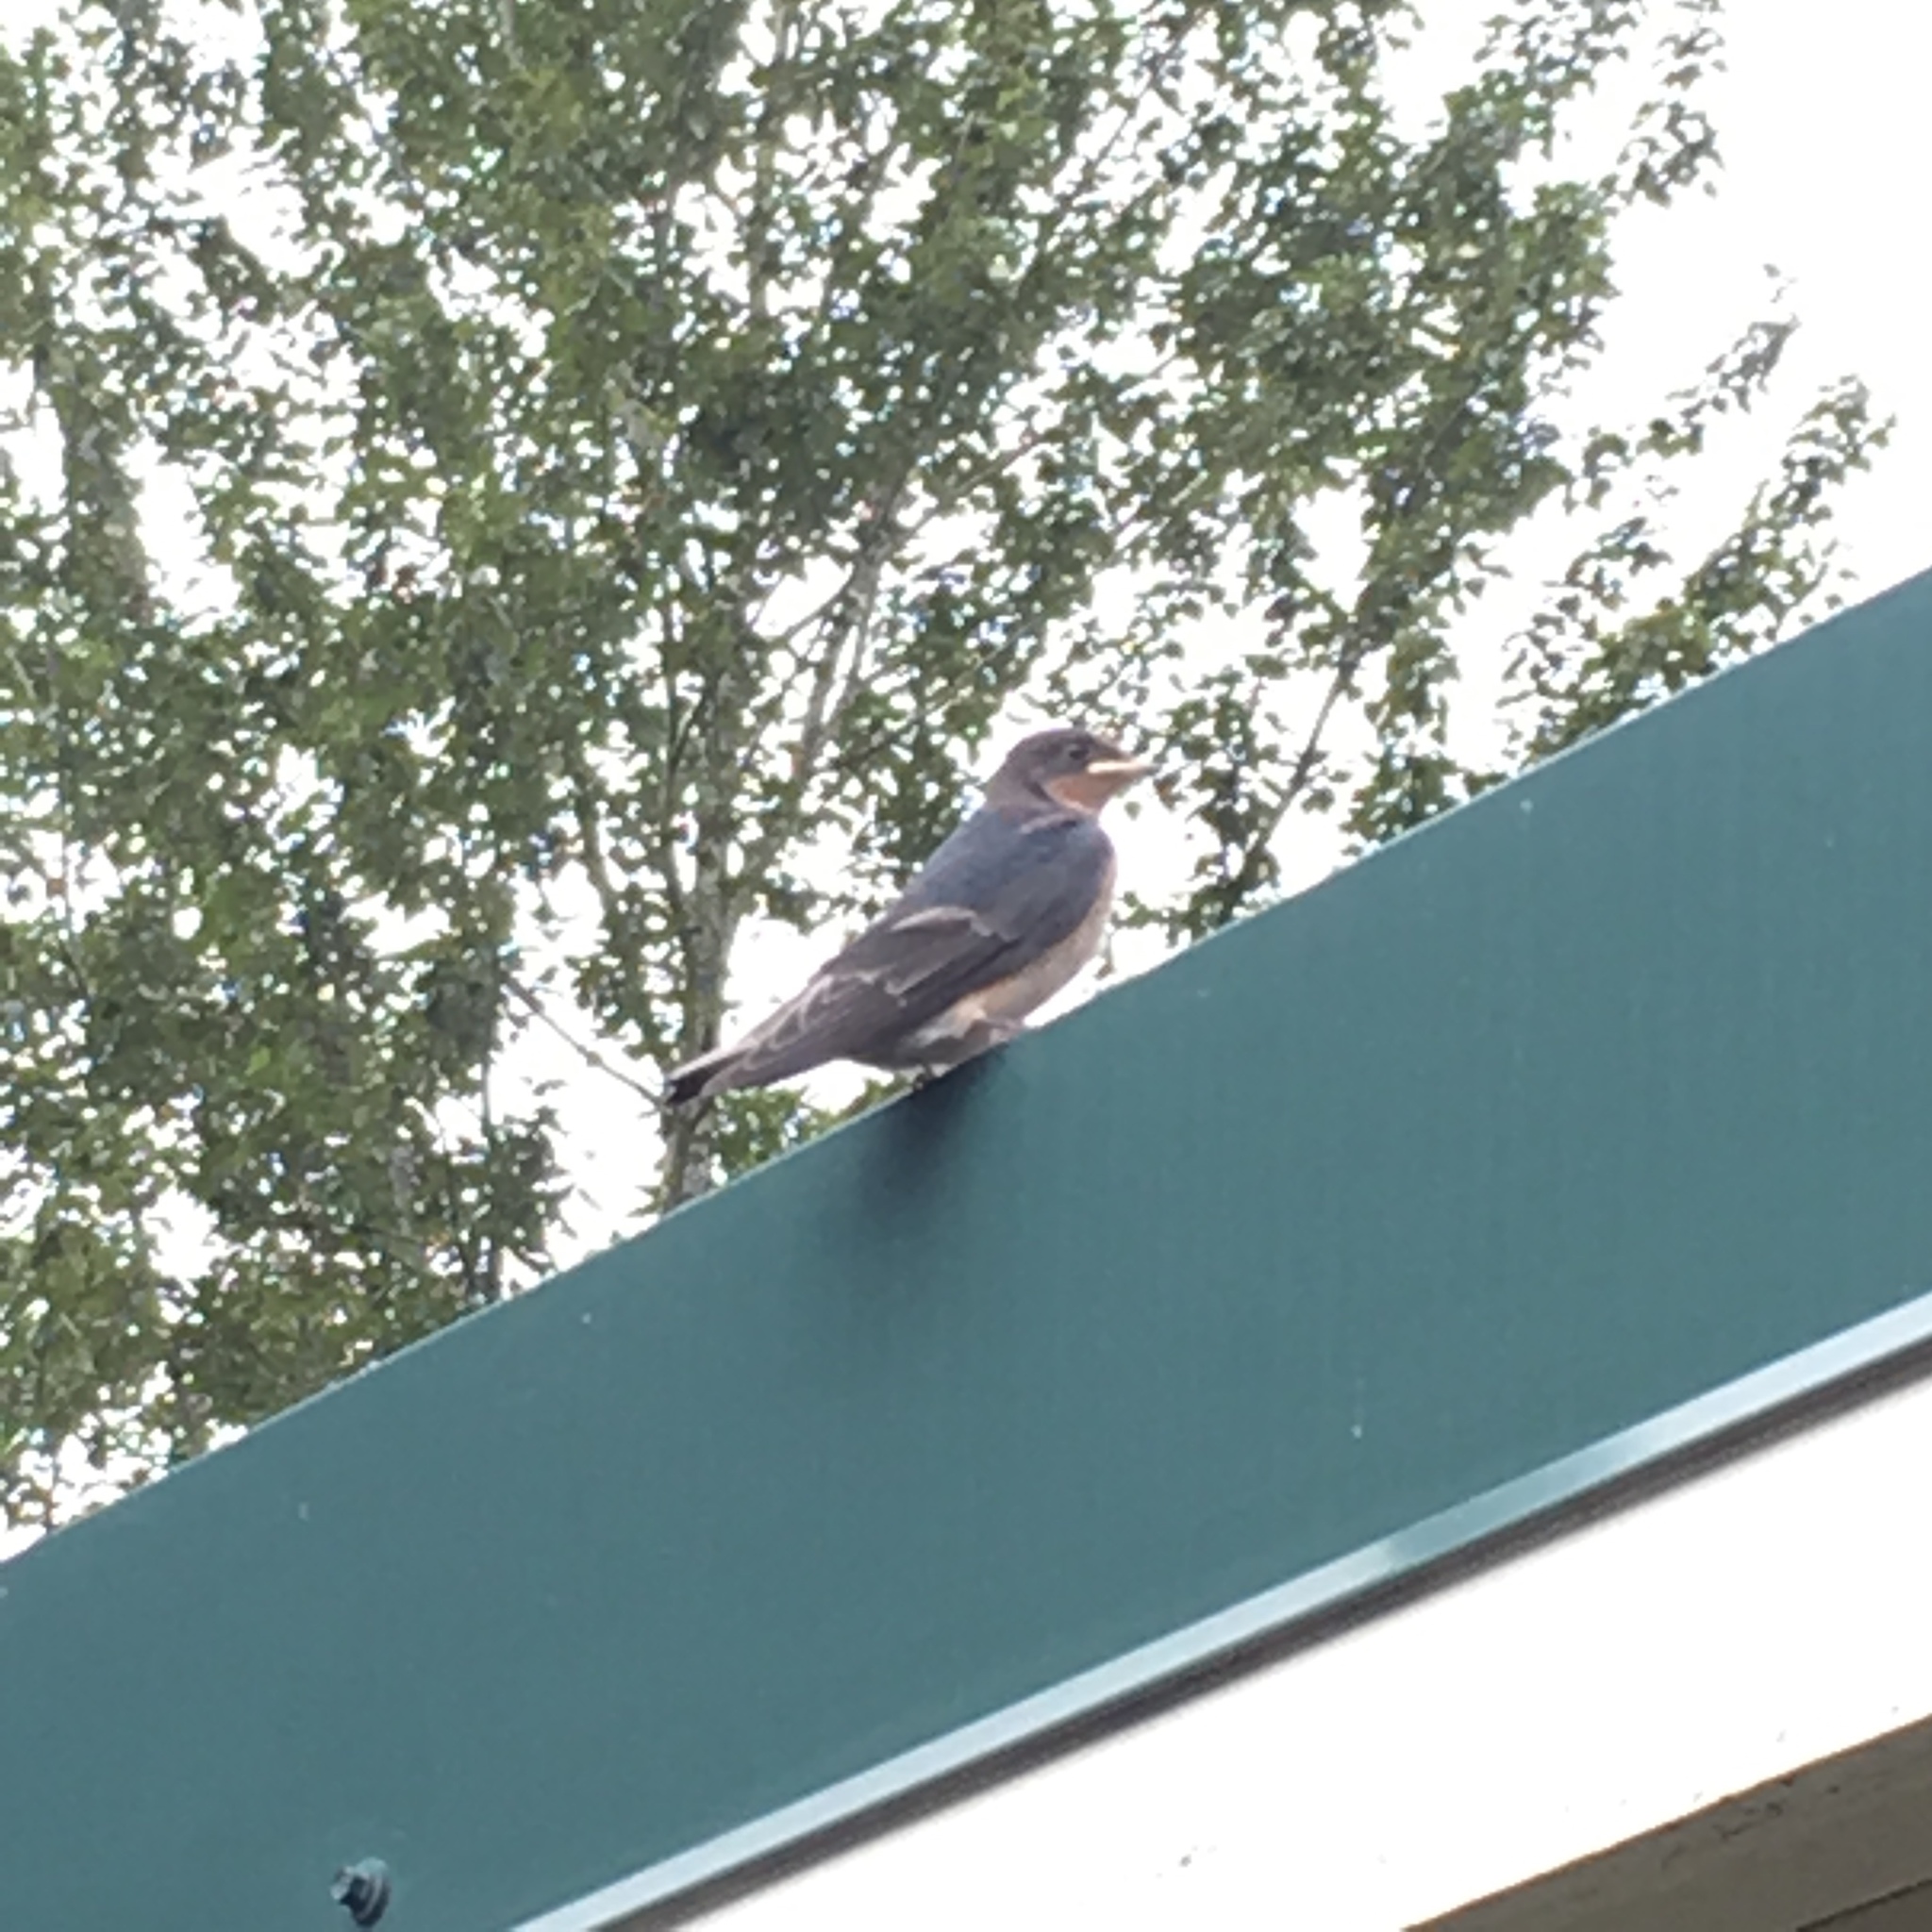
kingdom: Animalia
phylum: Chordata
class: Aves
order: Passeriformes
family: Hirundinidae
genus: Hirundo
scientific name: Hirundo rustica
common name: Barn swallow
